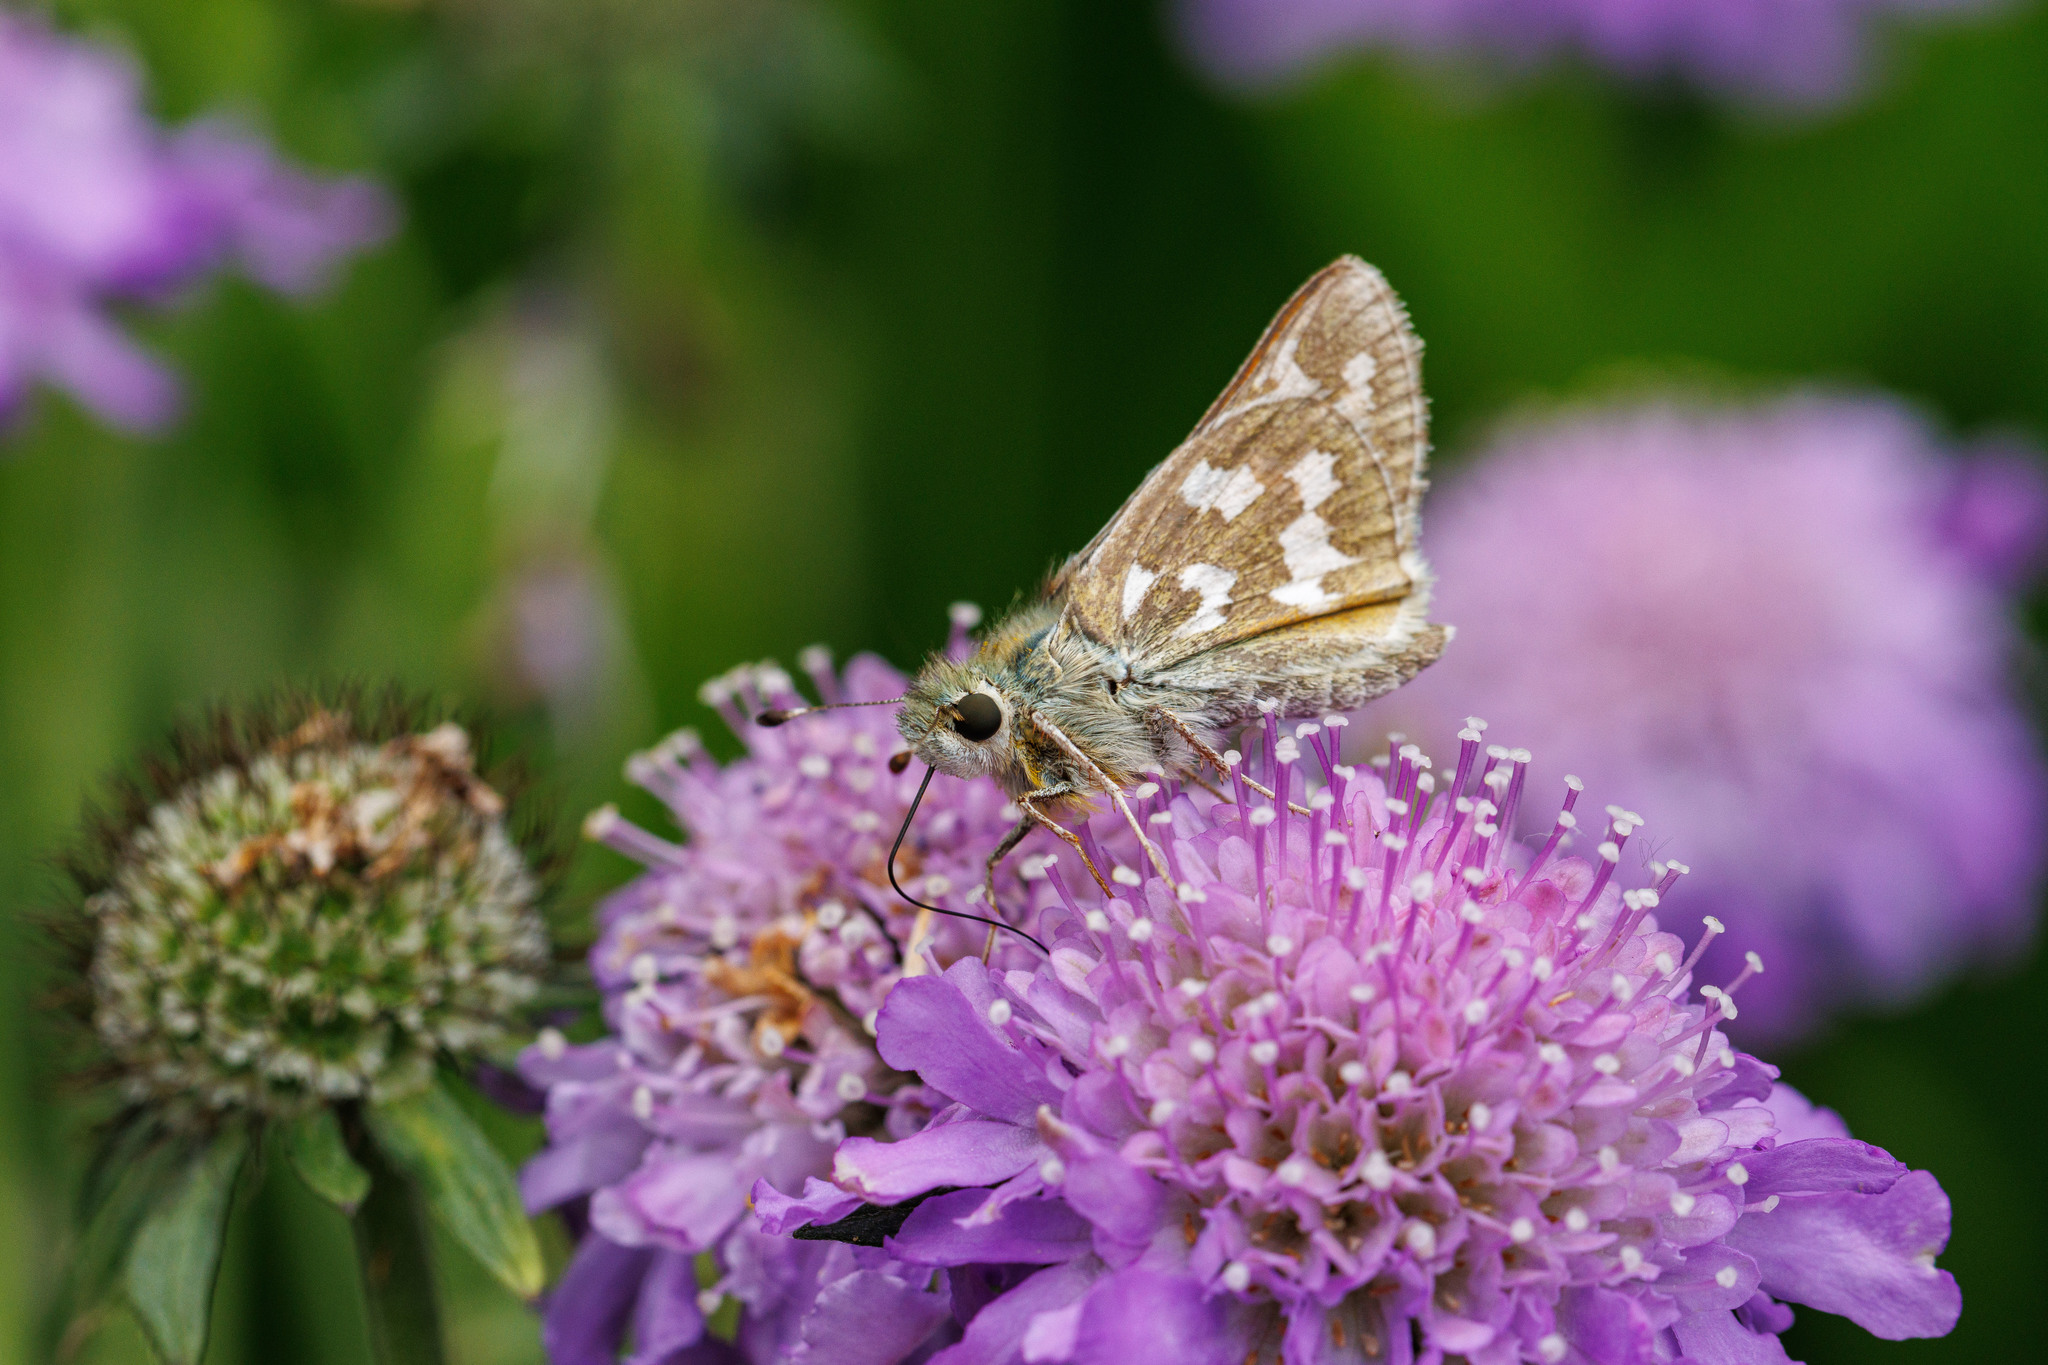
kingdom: Animalia
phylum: Arthropoda
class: Insecta
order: Lepidoptera
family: Hesperiidae
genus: Hesperia
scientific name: Hesperia juba
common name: Juba skipper
